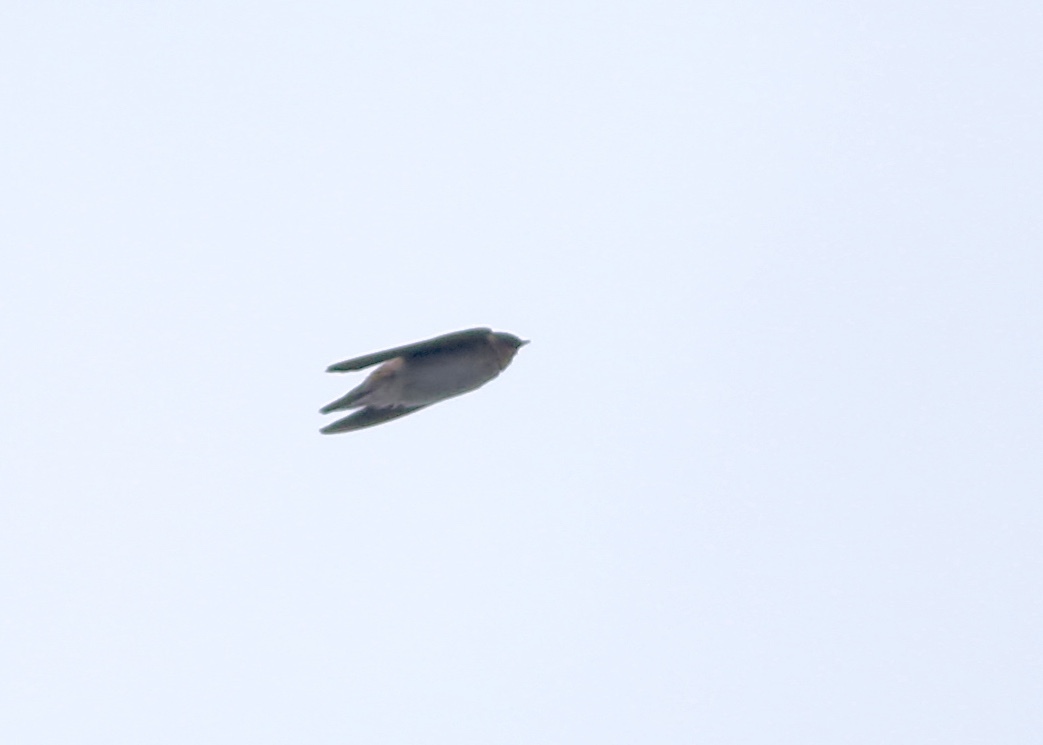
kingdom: Animalia
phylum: Chordata
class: Aves
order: Passeriformes
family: Hirundinidae
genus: Petrochelidon
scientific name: Petrochelidon fulva
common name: Cave swallow
